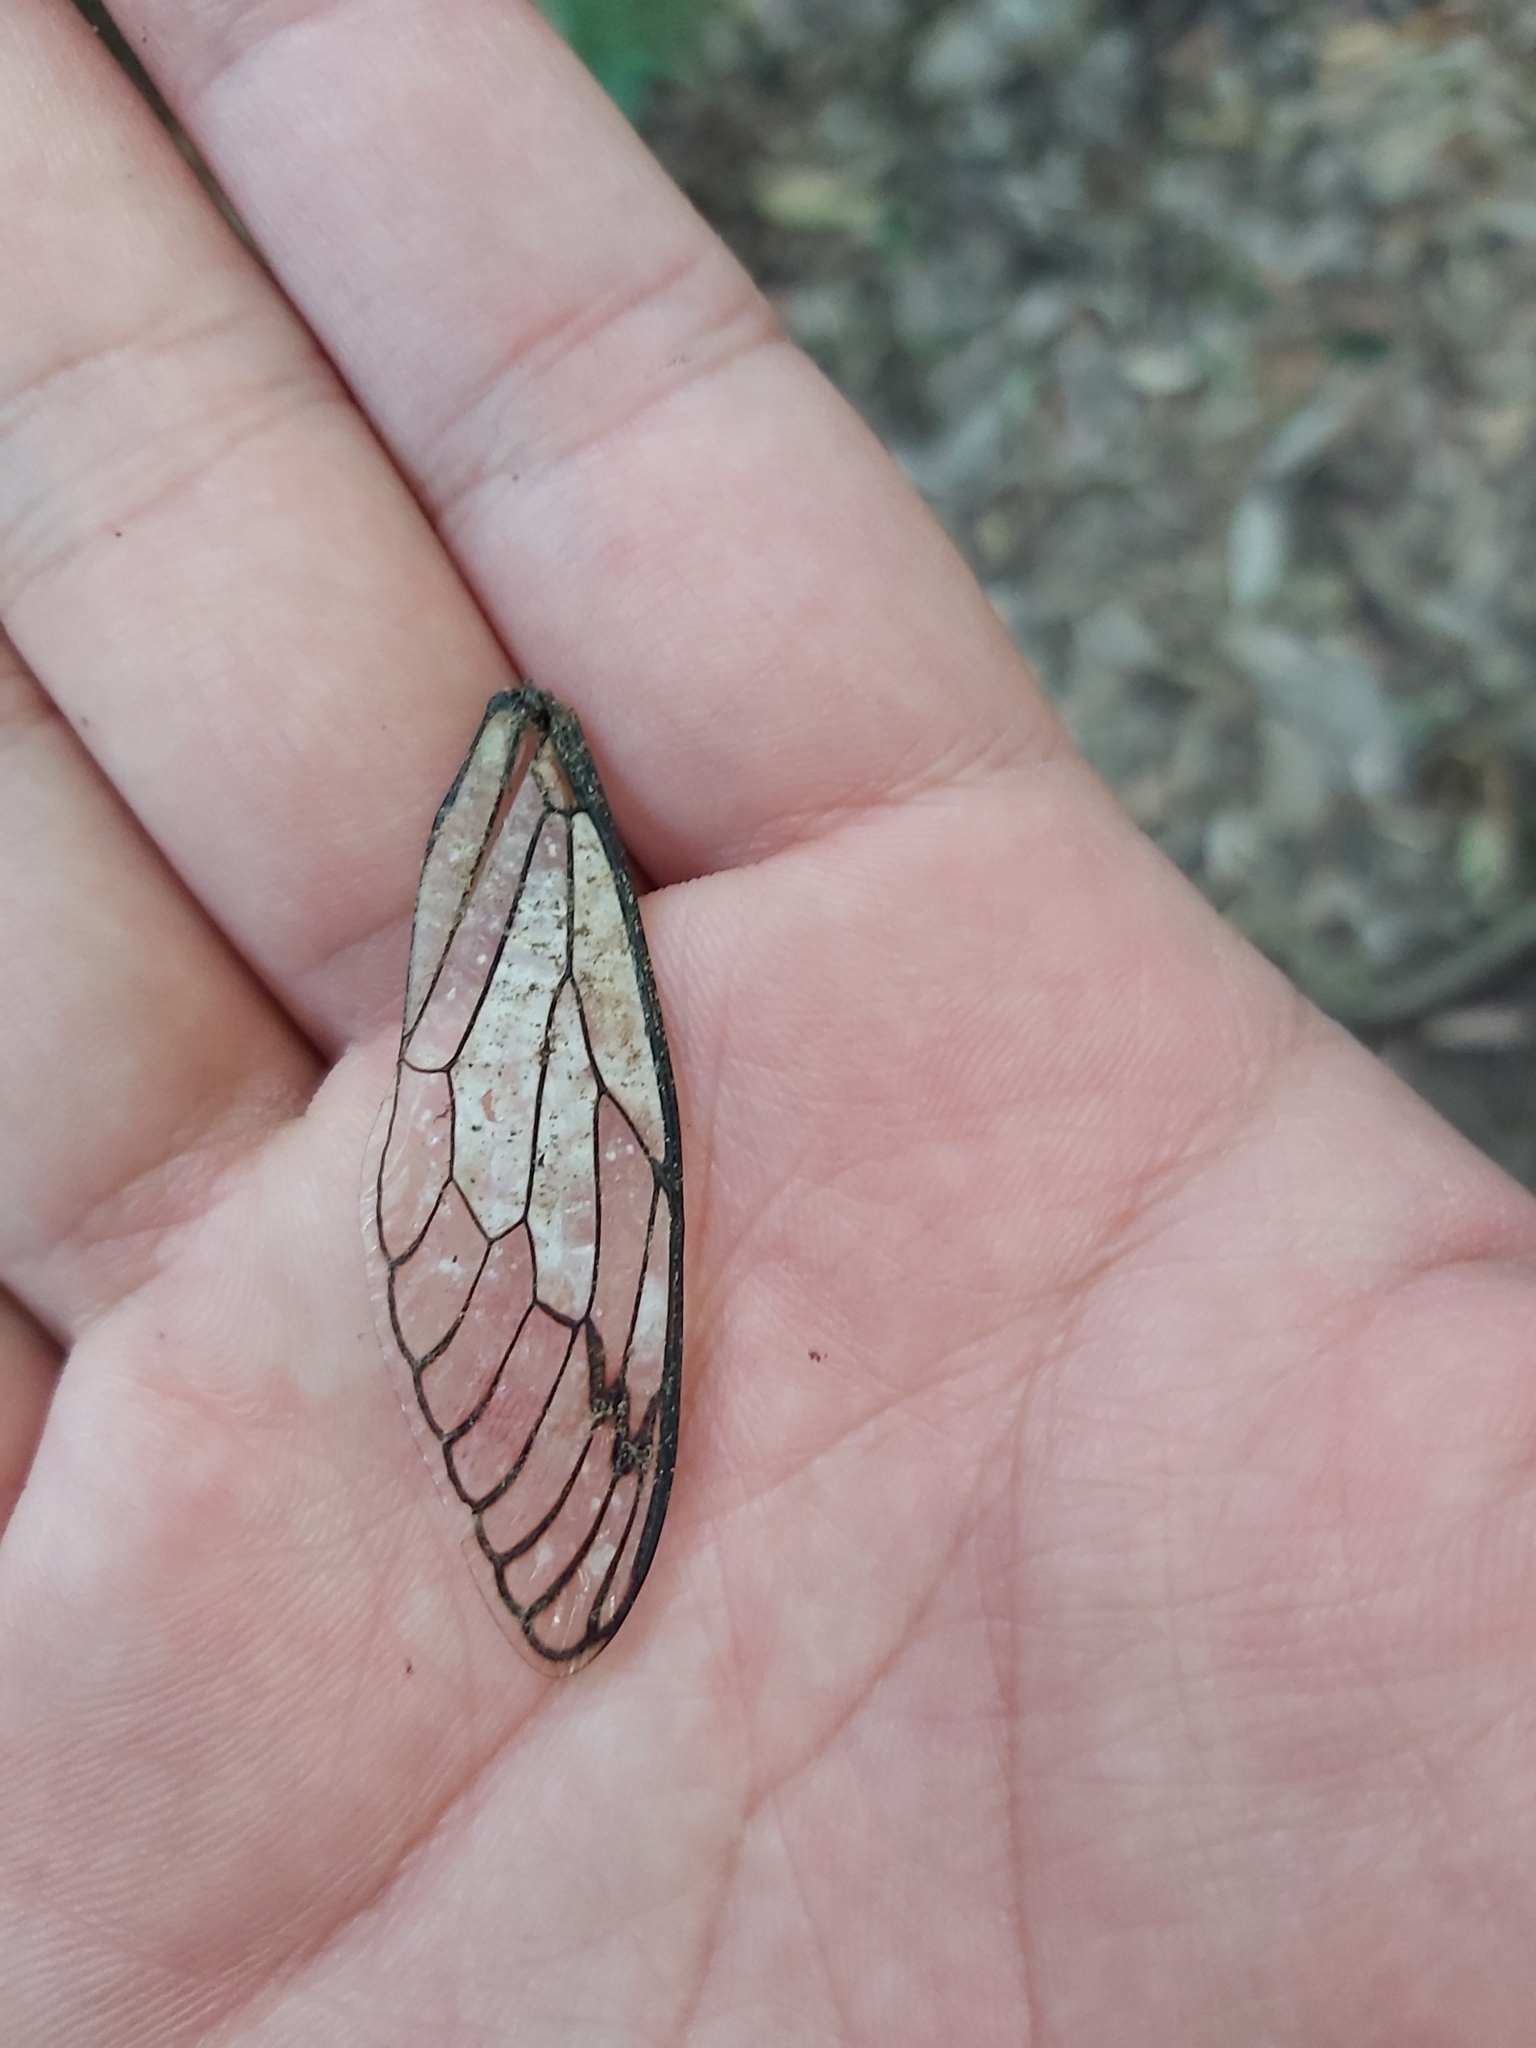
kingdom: Animalia
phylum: Arthropoda
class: Insecta
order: Hemiptera
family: Cicadidae
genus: Psaltoda
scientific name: Psaltoda plaga
